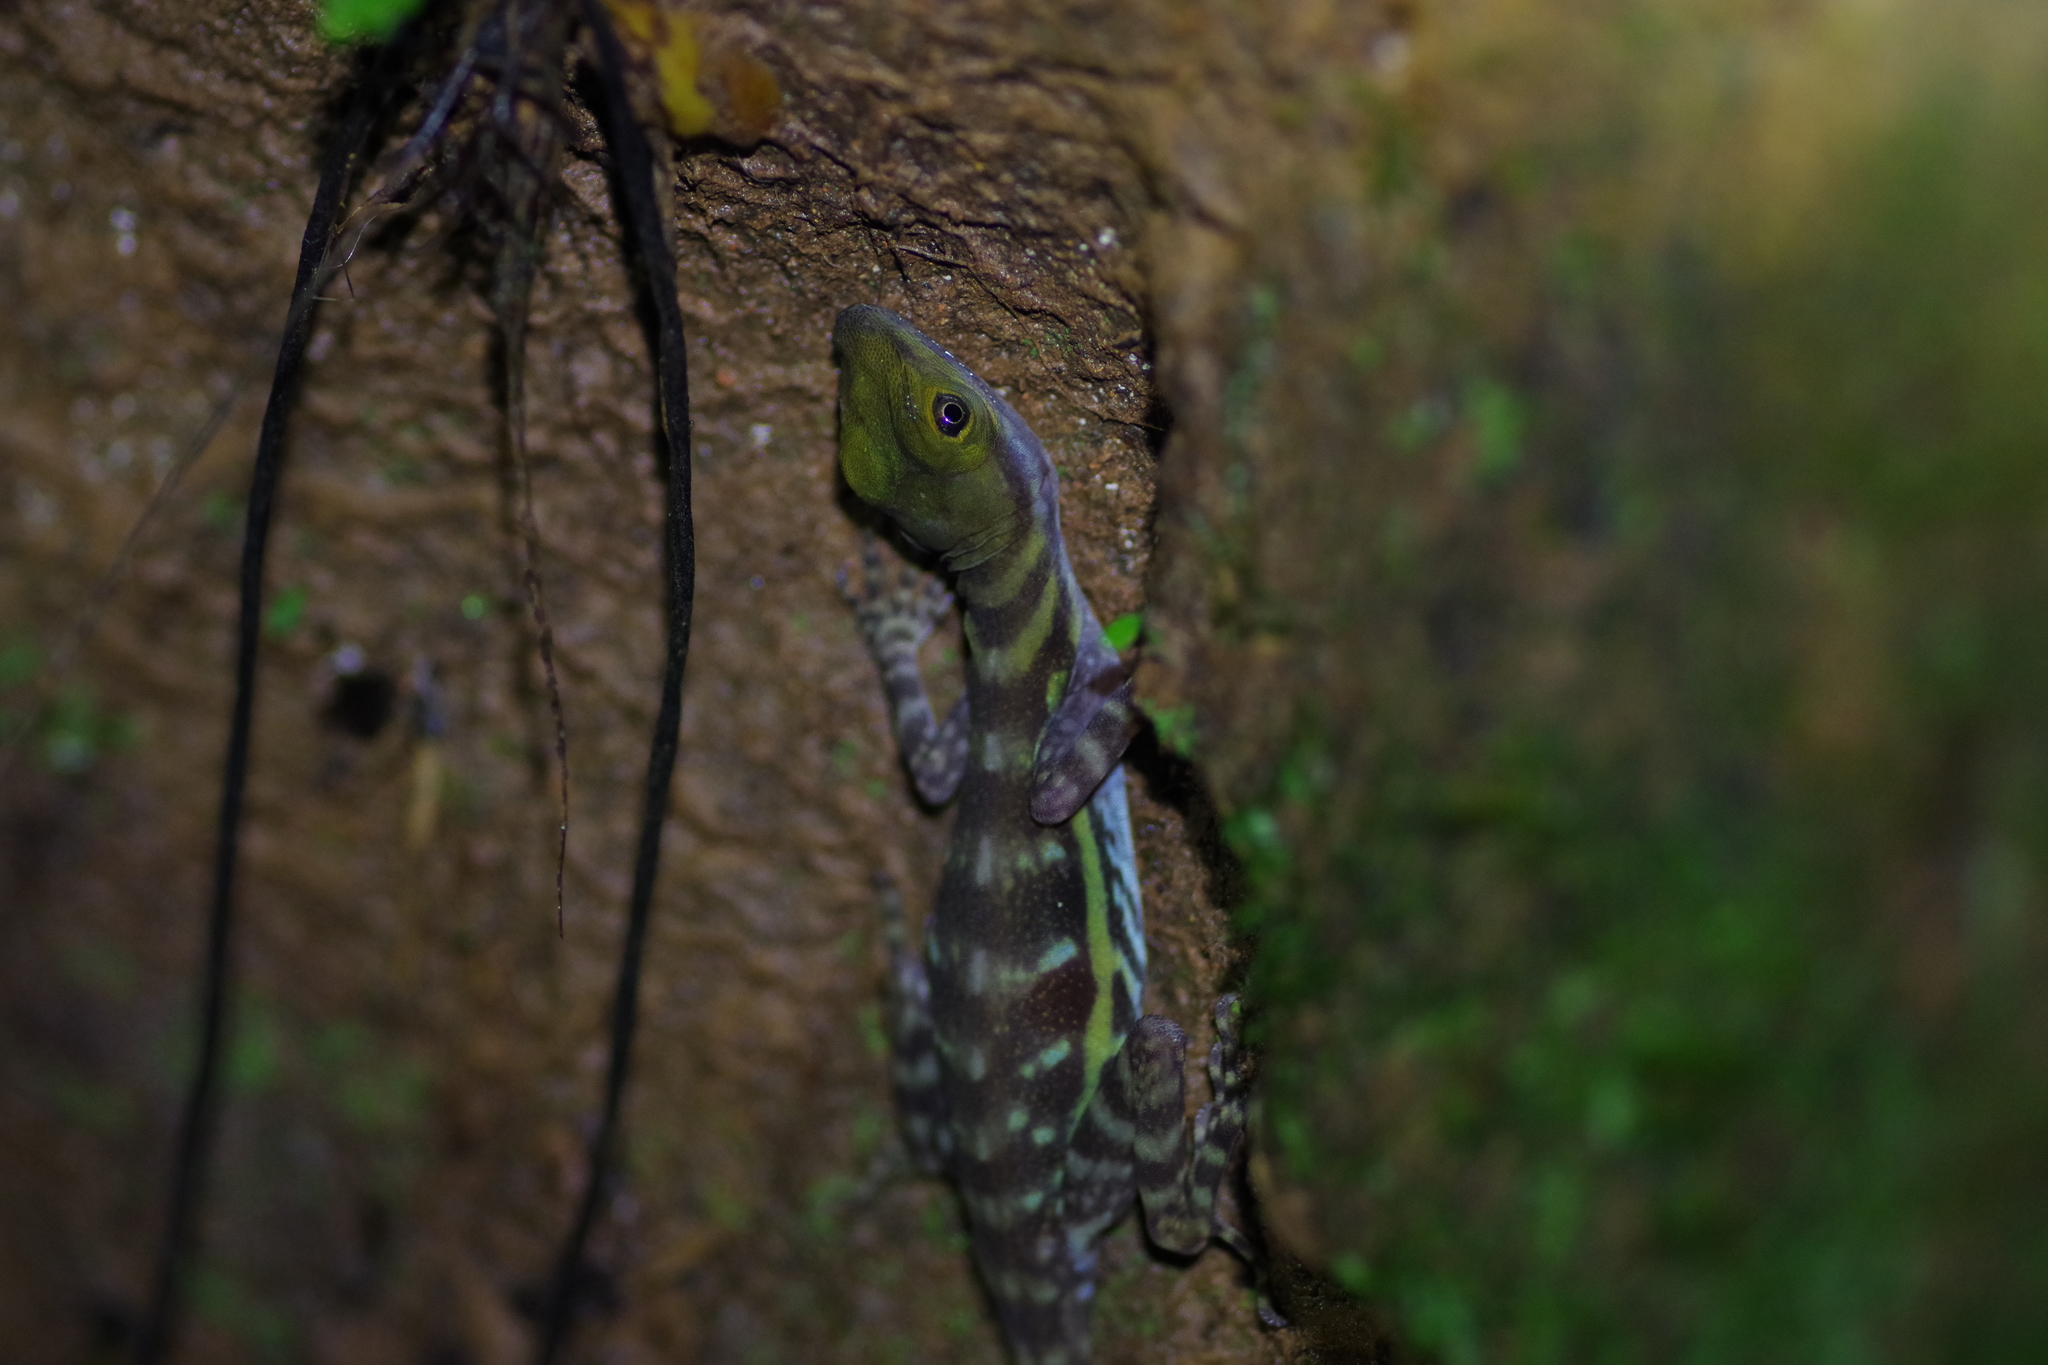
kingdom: Animalia
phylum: Chordata
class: Squamata
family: Dactyloidae
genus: Anolis
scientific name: Anolis aquaticus
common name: Aquatic anole
